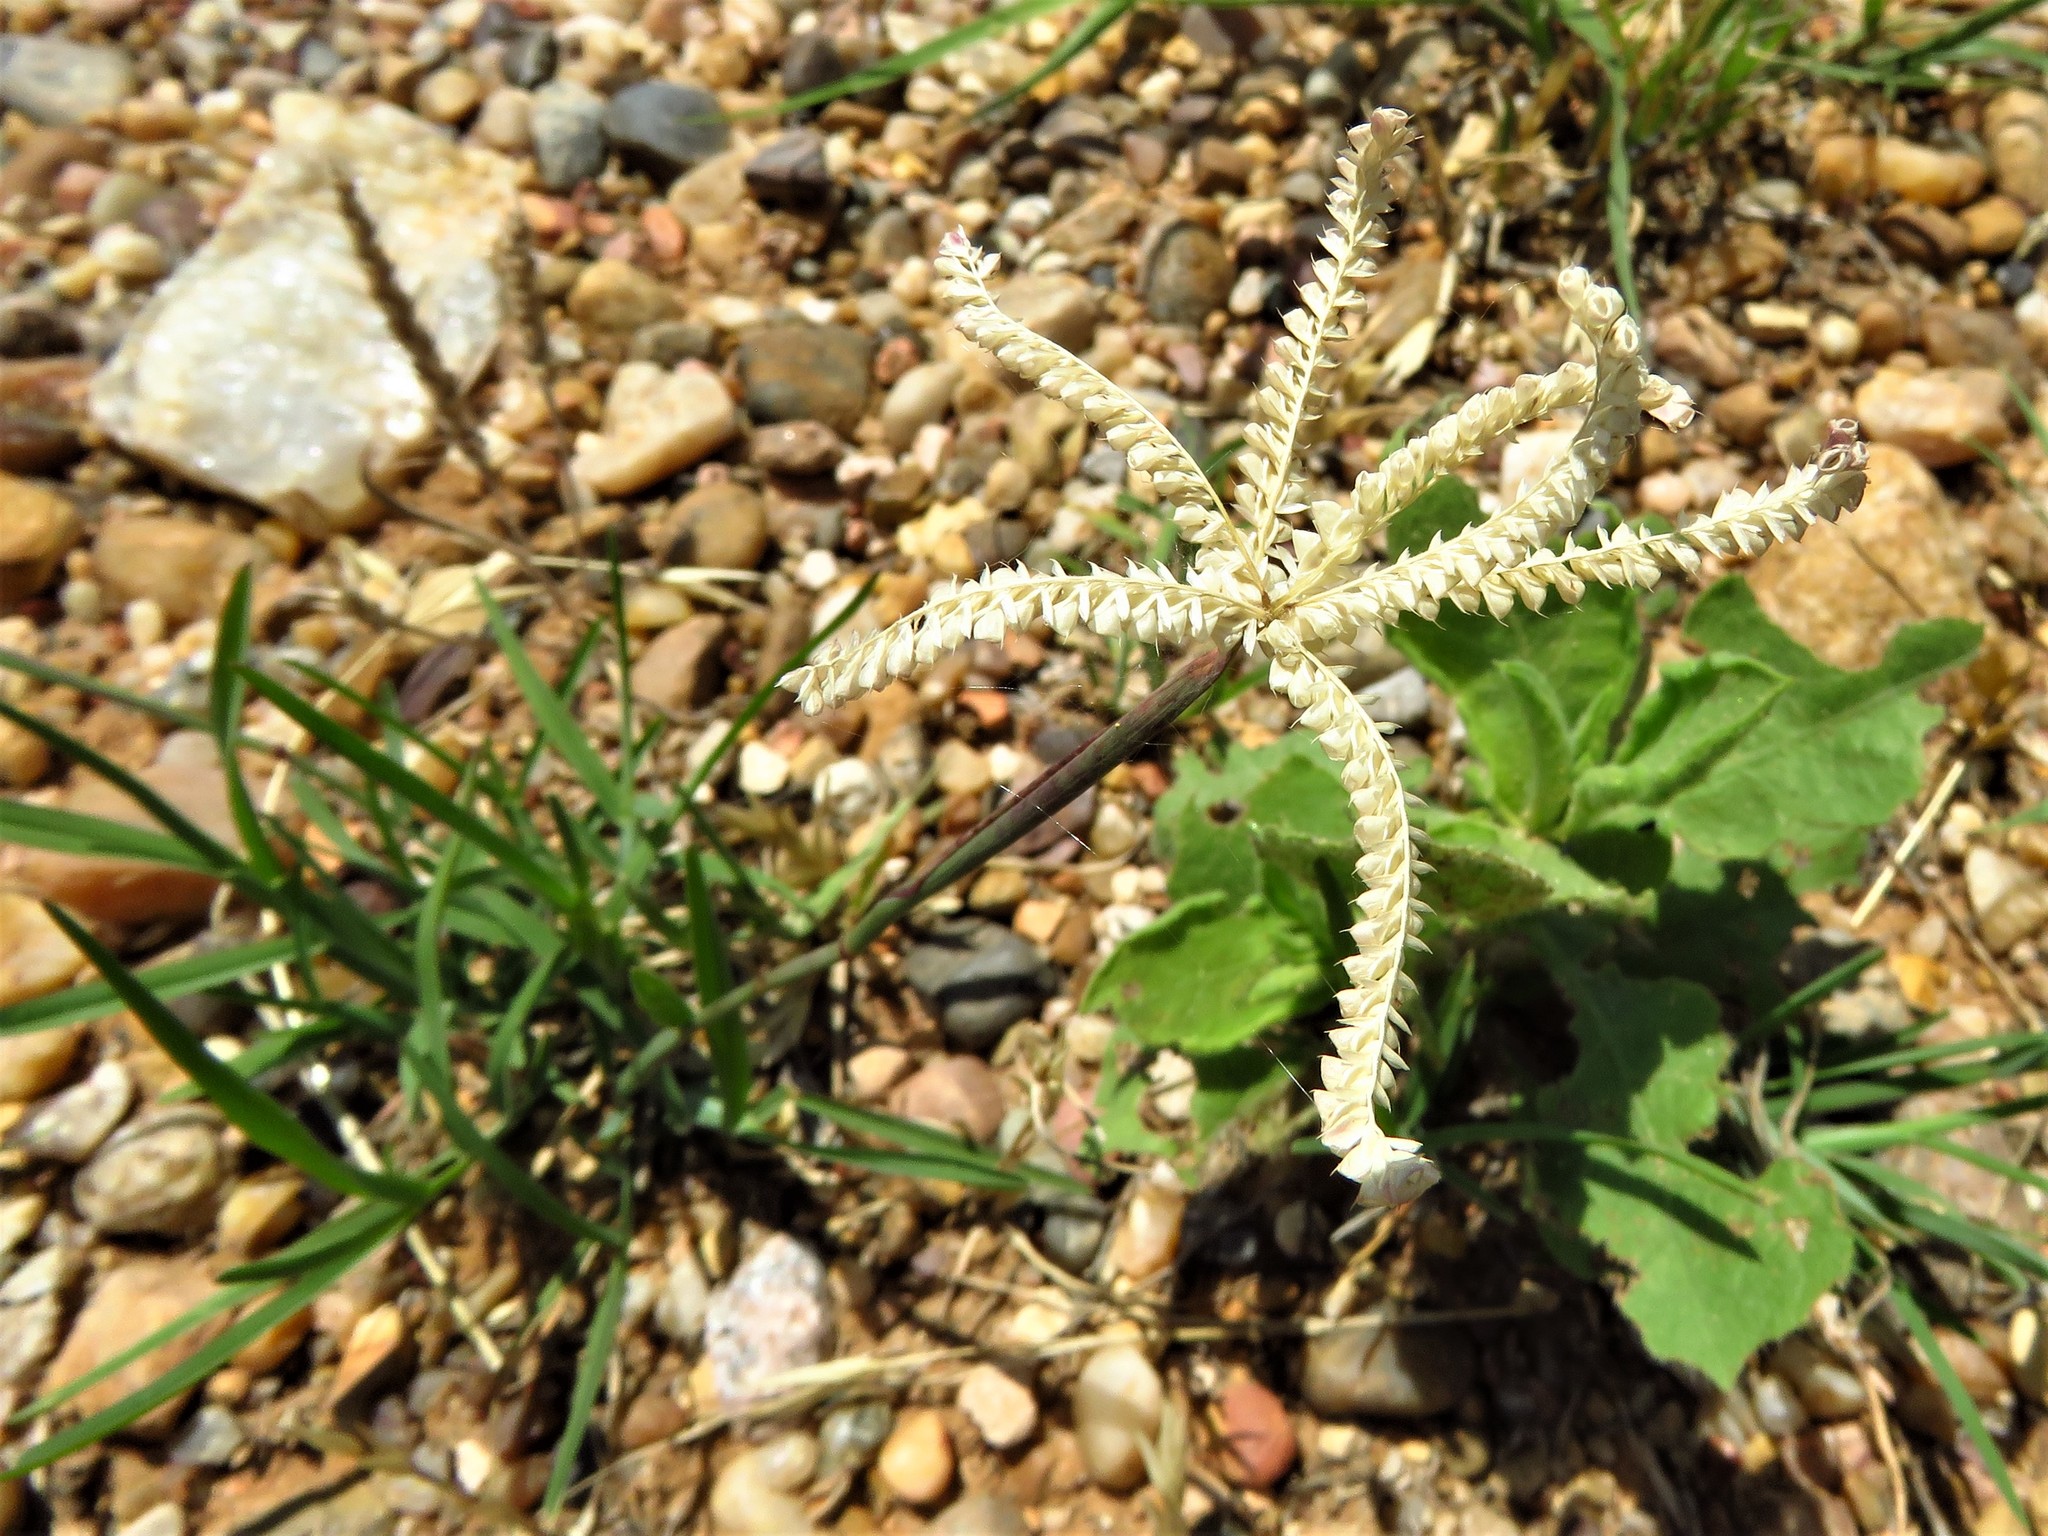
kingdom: Plantae
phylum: Tracheophyta
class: Liliopsida
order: Poales
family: Poaceae
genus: Chloris
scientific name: Chloris cucullata
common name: Hooded windmill grass
